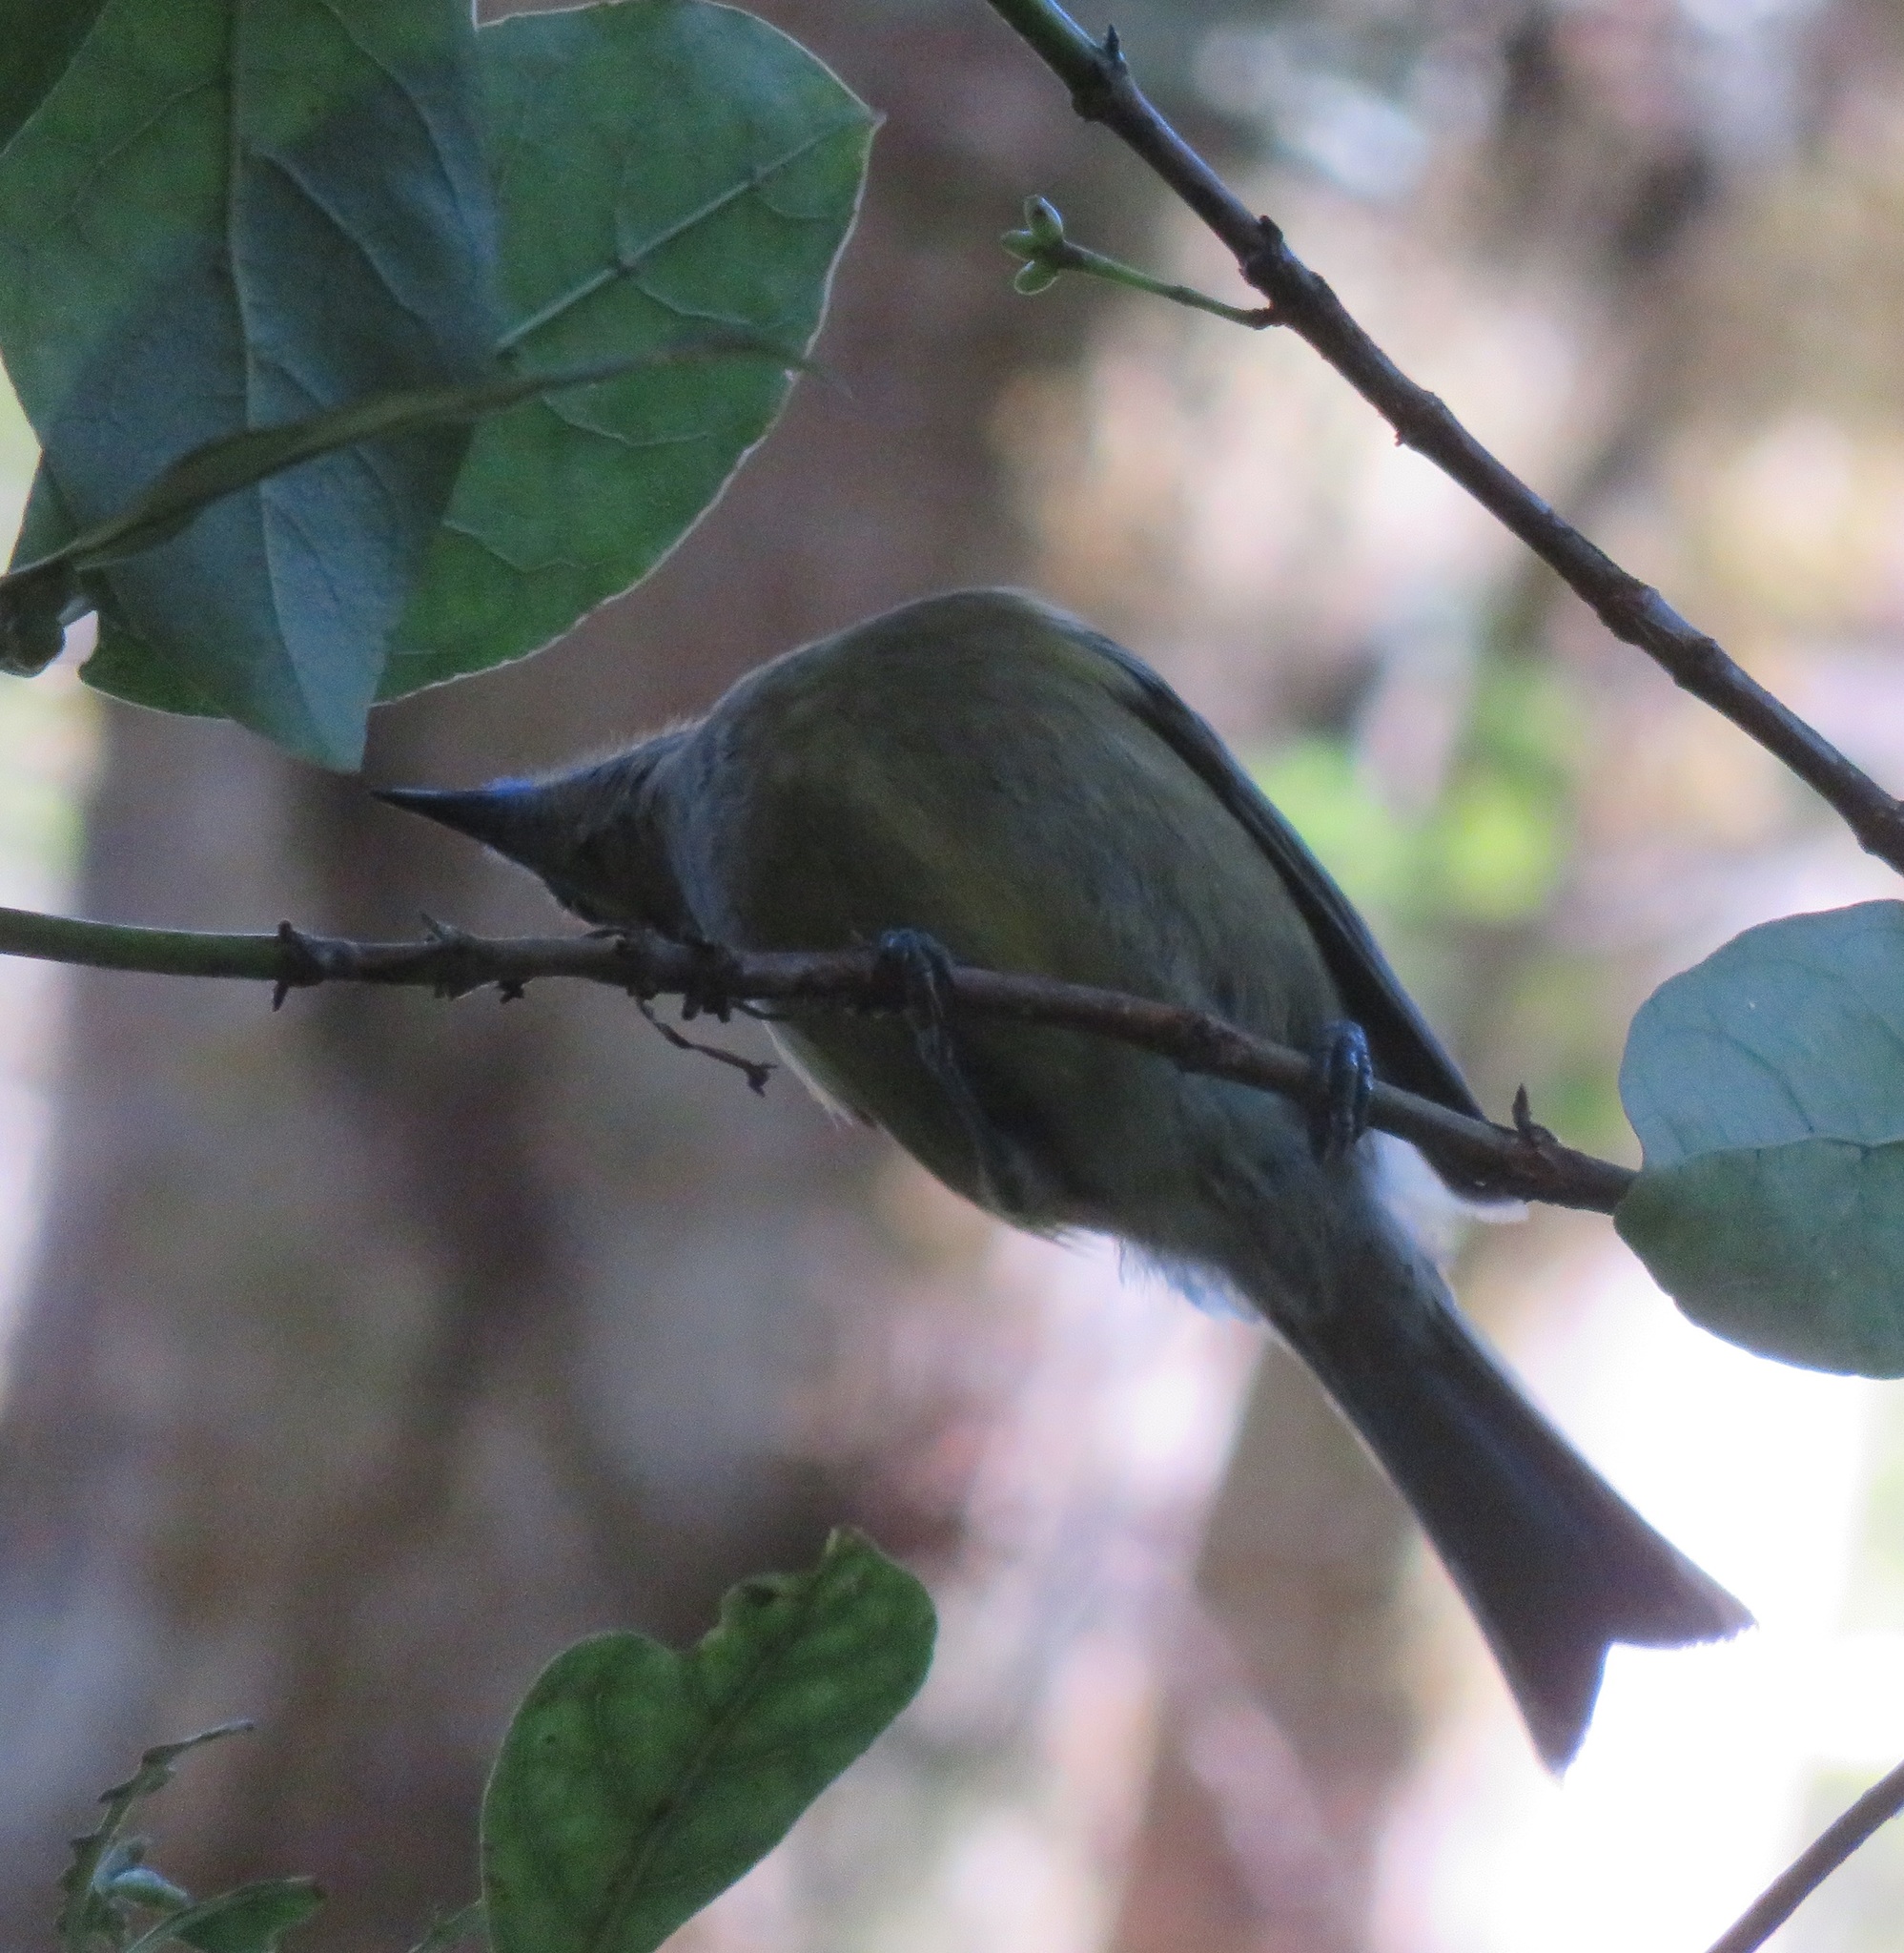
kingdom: Animalia
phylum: Chordata
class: Aves
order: Passeriformes
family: Meliphagidae
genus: Anthornis
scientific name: Anthornis melanura
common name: New zealand bellbird
